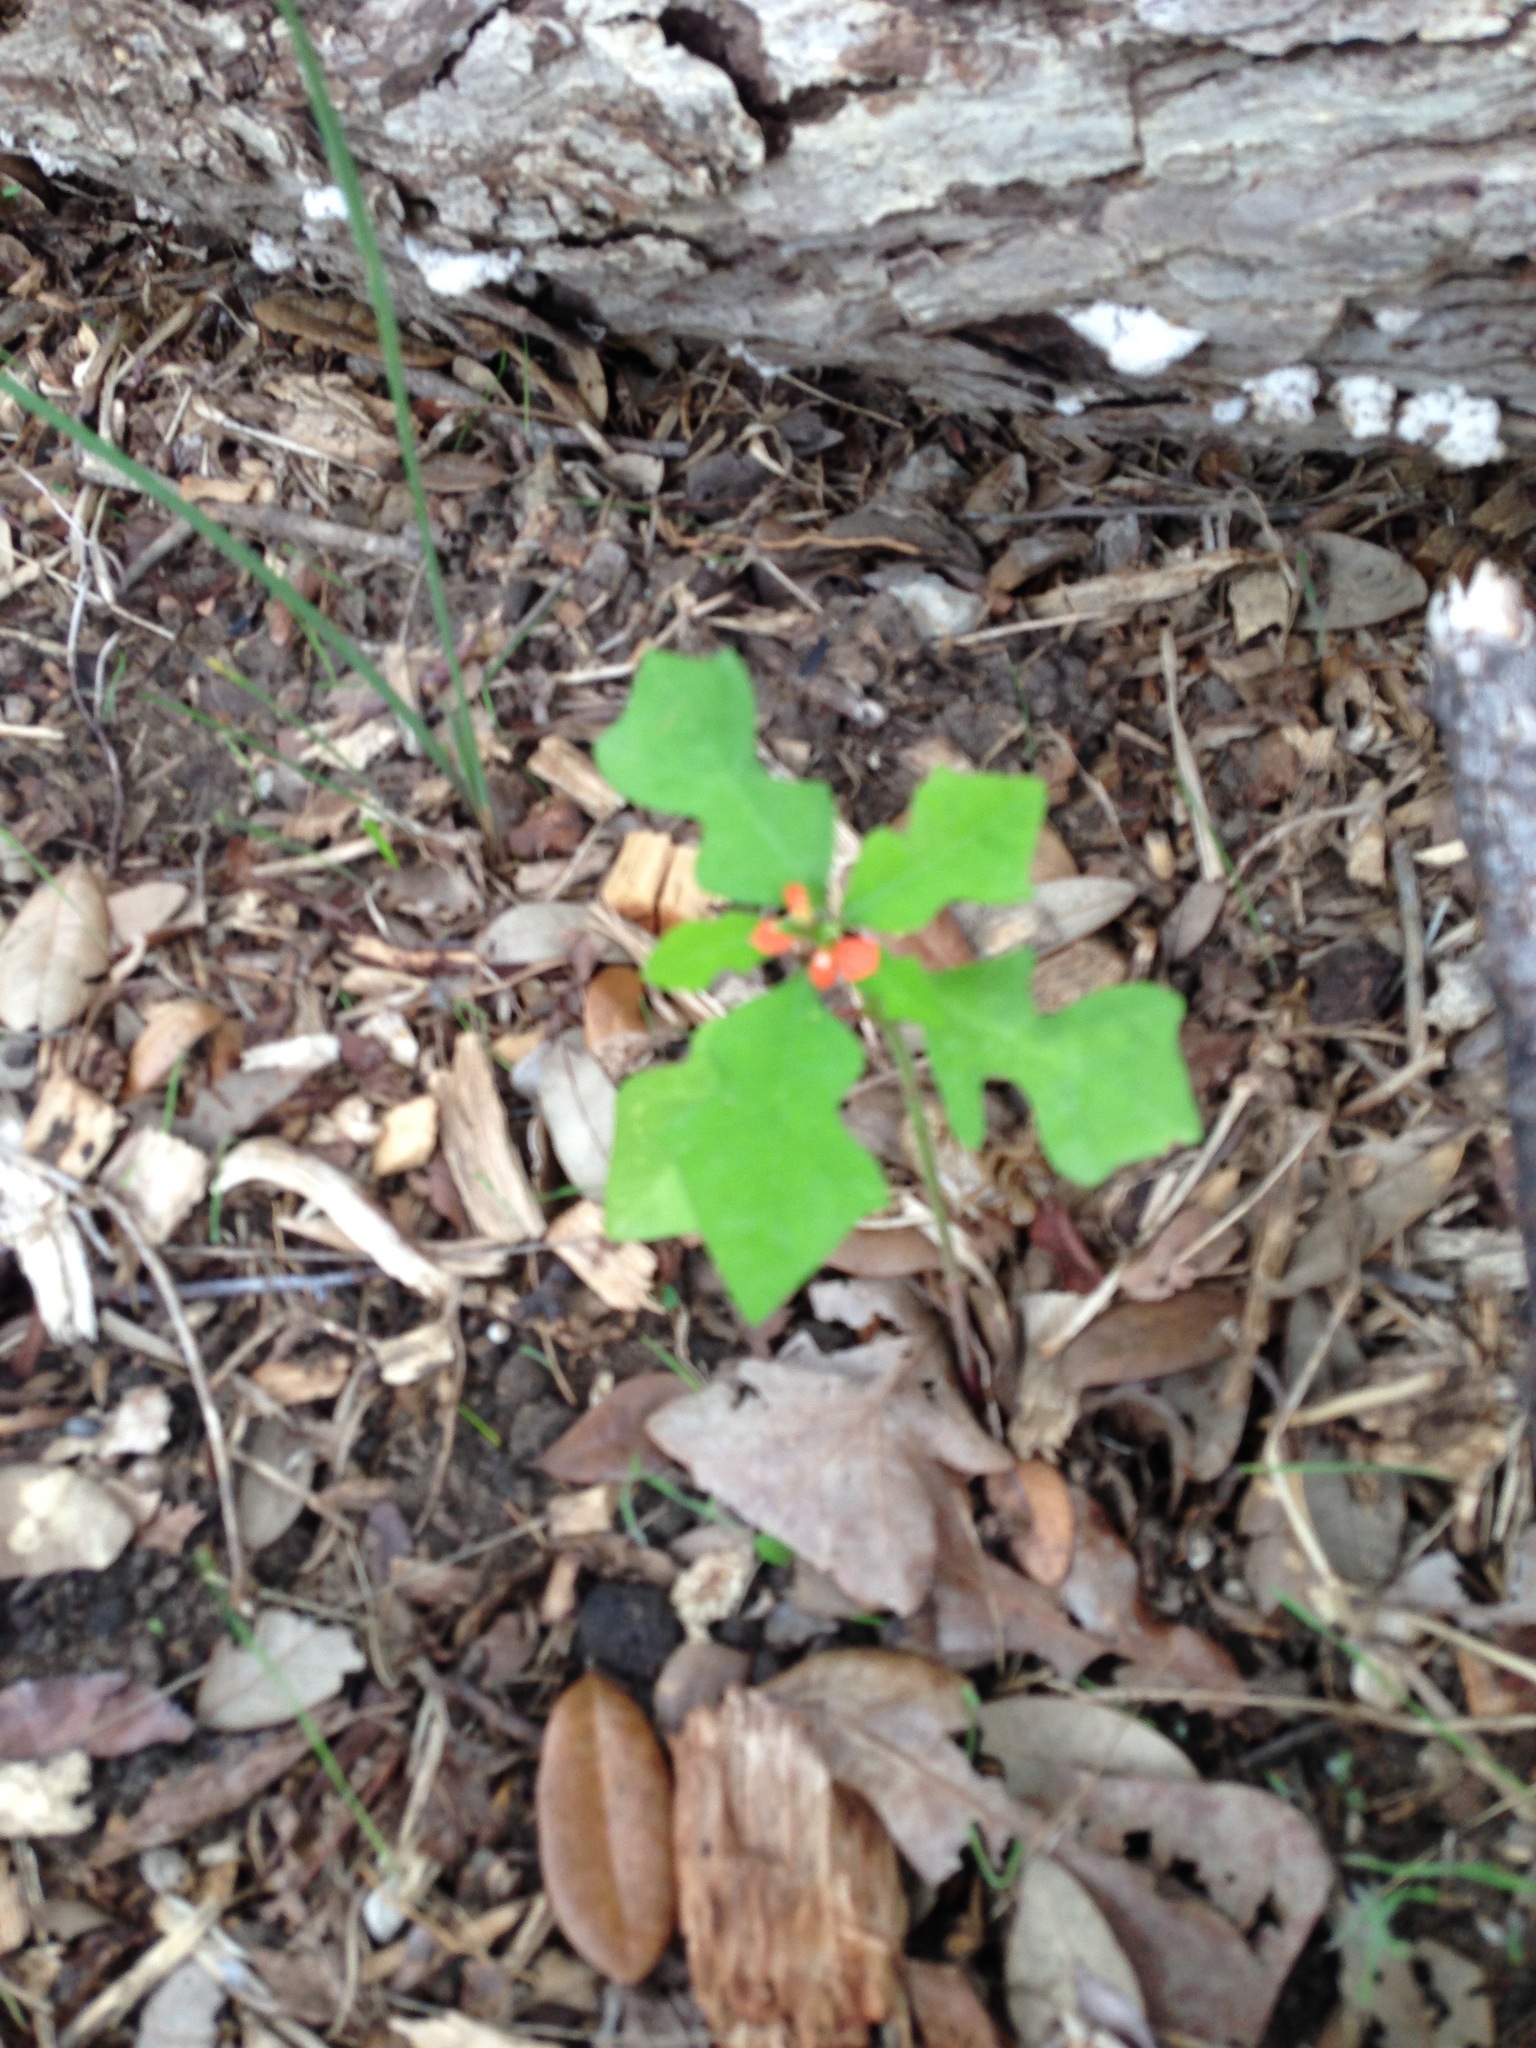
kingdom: Plantae
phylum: Tracheophyta
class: Magnoliopsida
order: Malpighiales
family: Euphorbiaceae
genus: Euphorbia
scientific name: Euphorbia heterophylla
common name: Mexican fireplant
